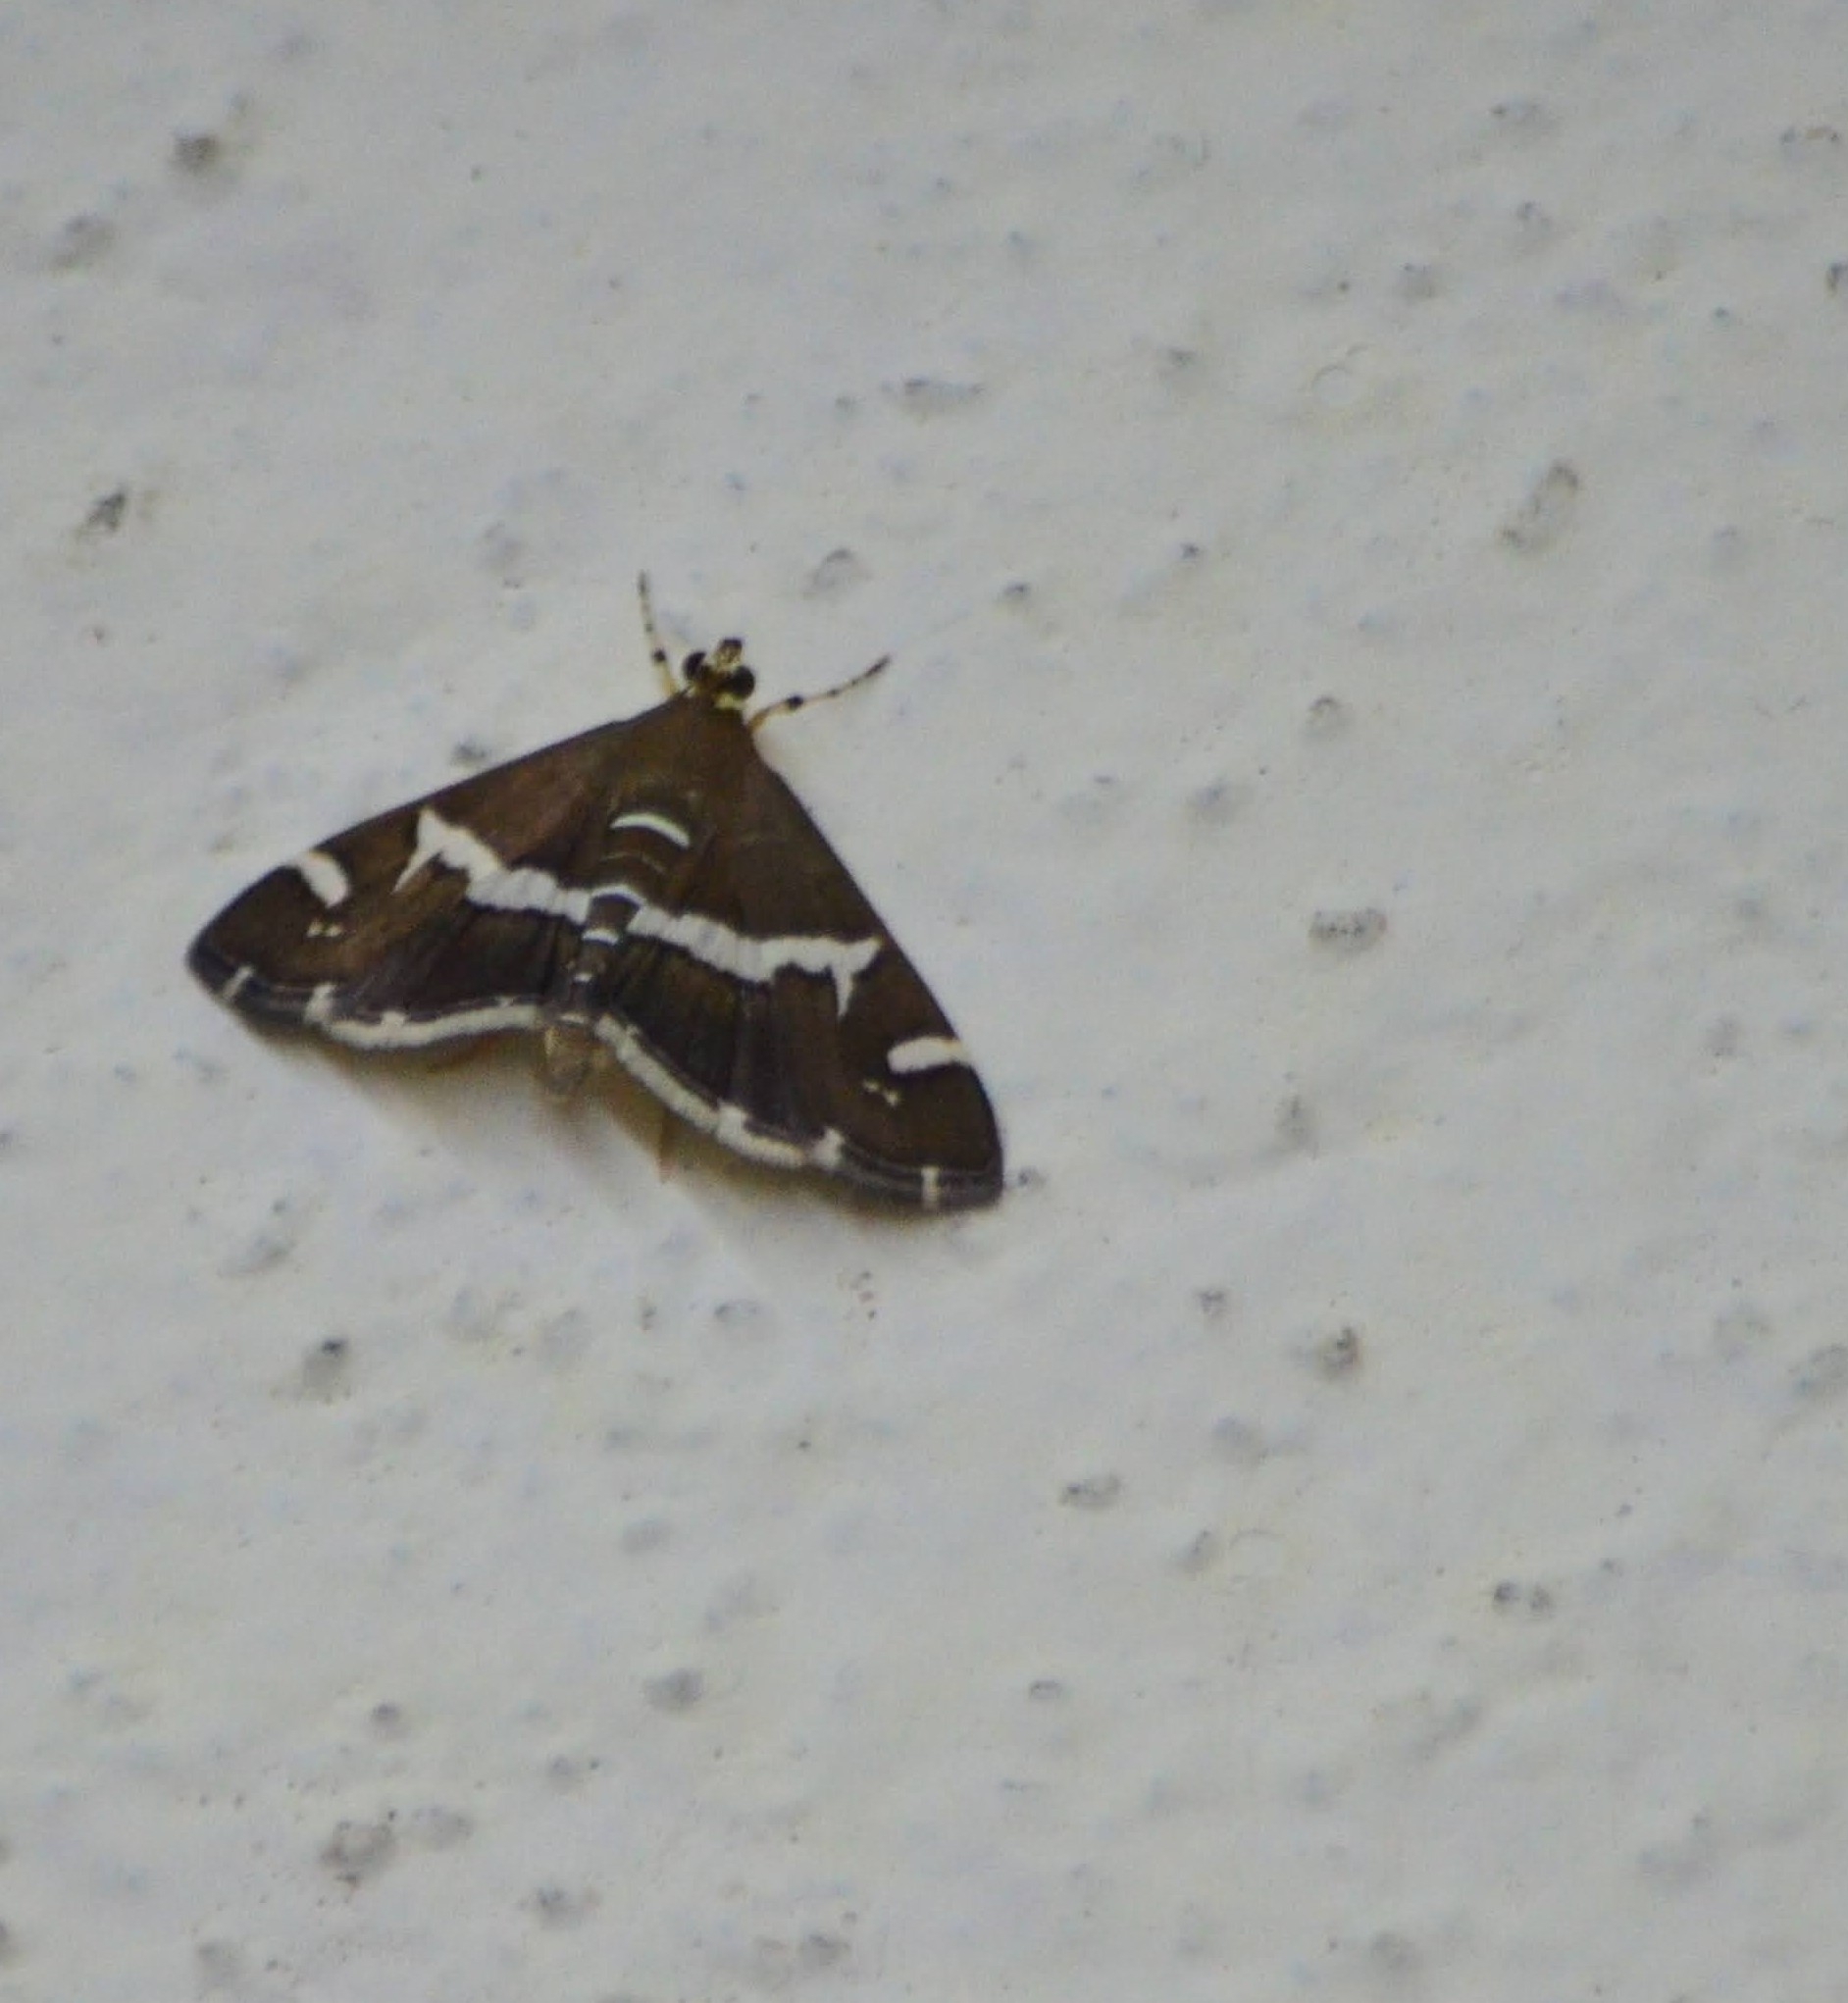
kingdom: Animalia
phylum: Arthropoda
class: Insecta
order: Lepidoptera
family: Crambidae
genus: Spoladea
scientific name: Spoladea recurvalis
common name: Beet webworm moth
